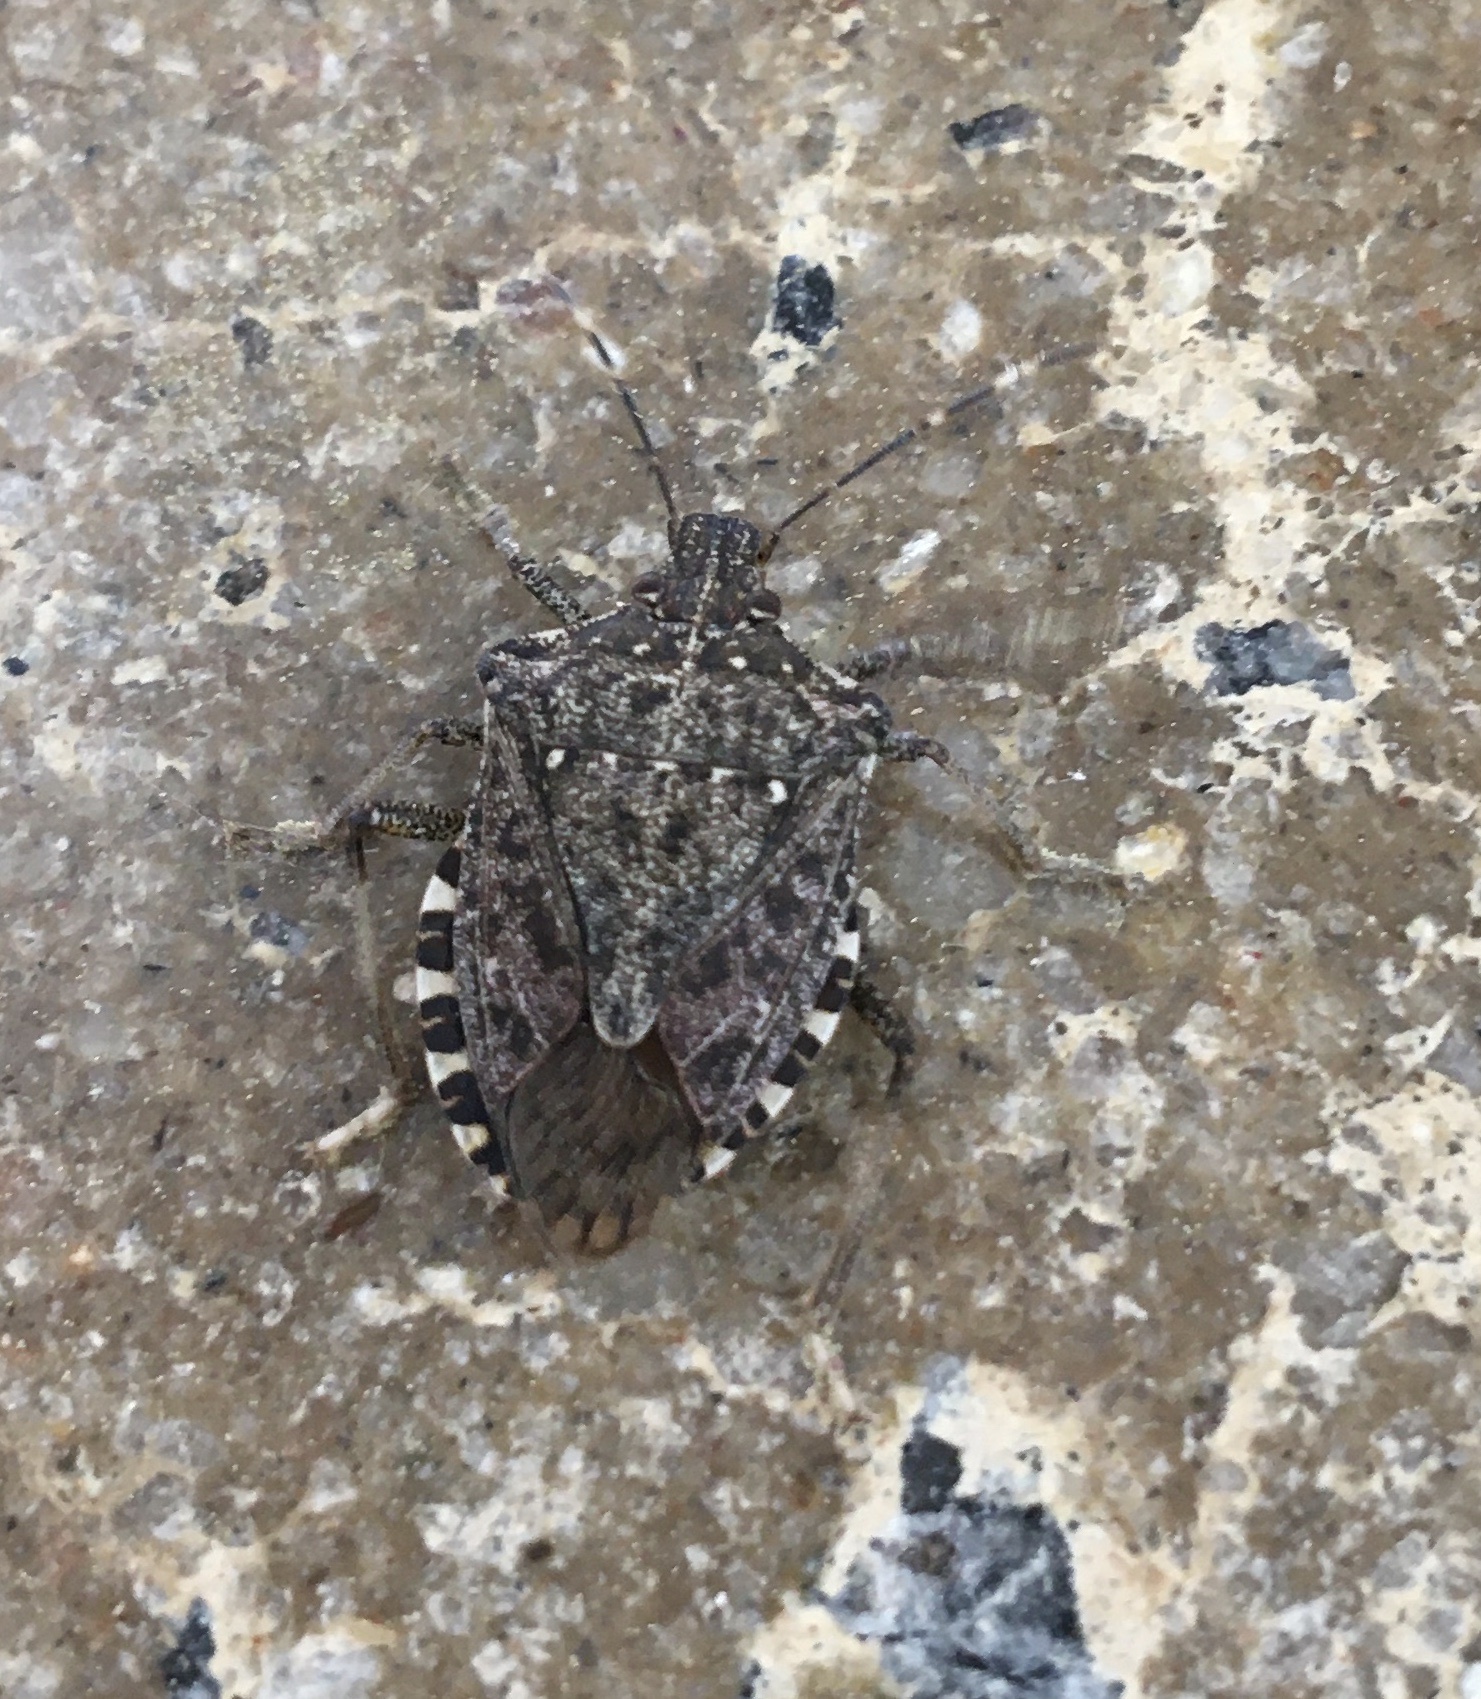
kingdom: Animalia
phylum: Arthropoda
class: Insecta
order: Hemiptera
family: Pentatomidae
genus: Halyomorpha
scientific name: Halyomorpha halys
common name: Brown marmorated stink bug
